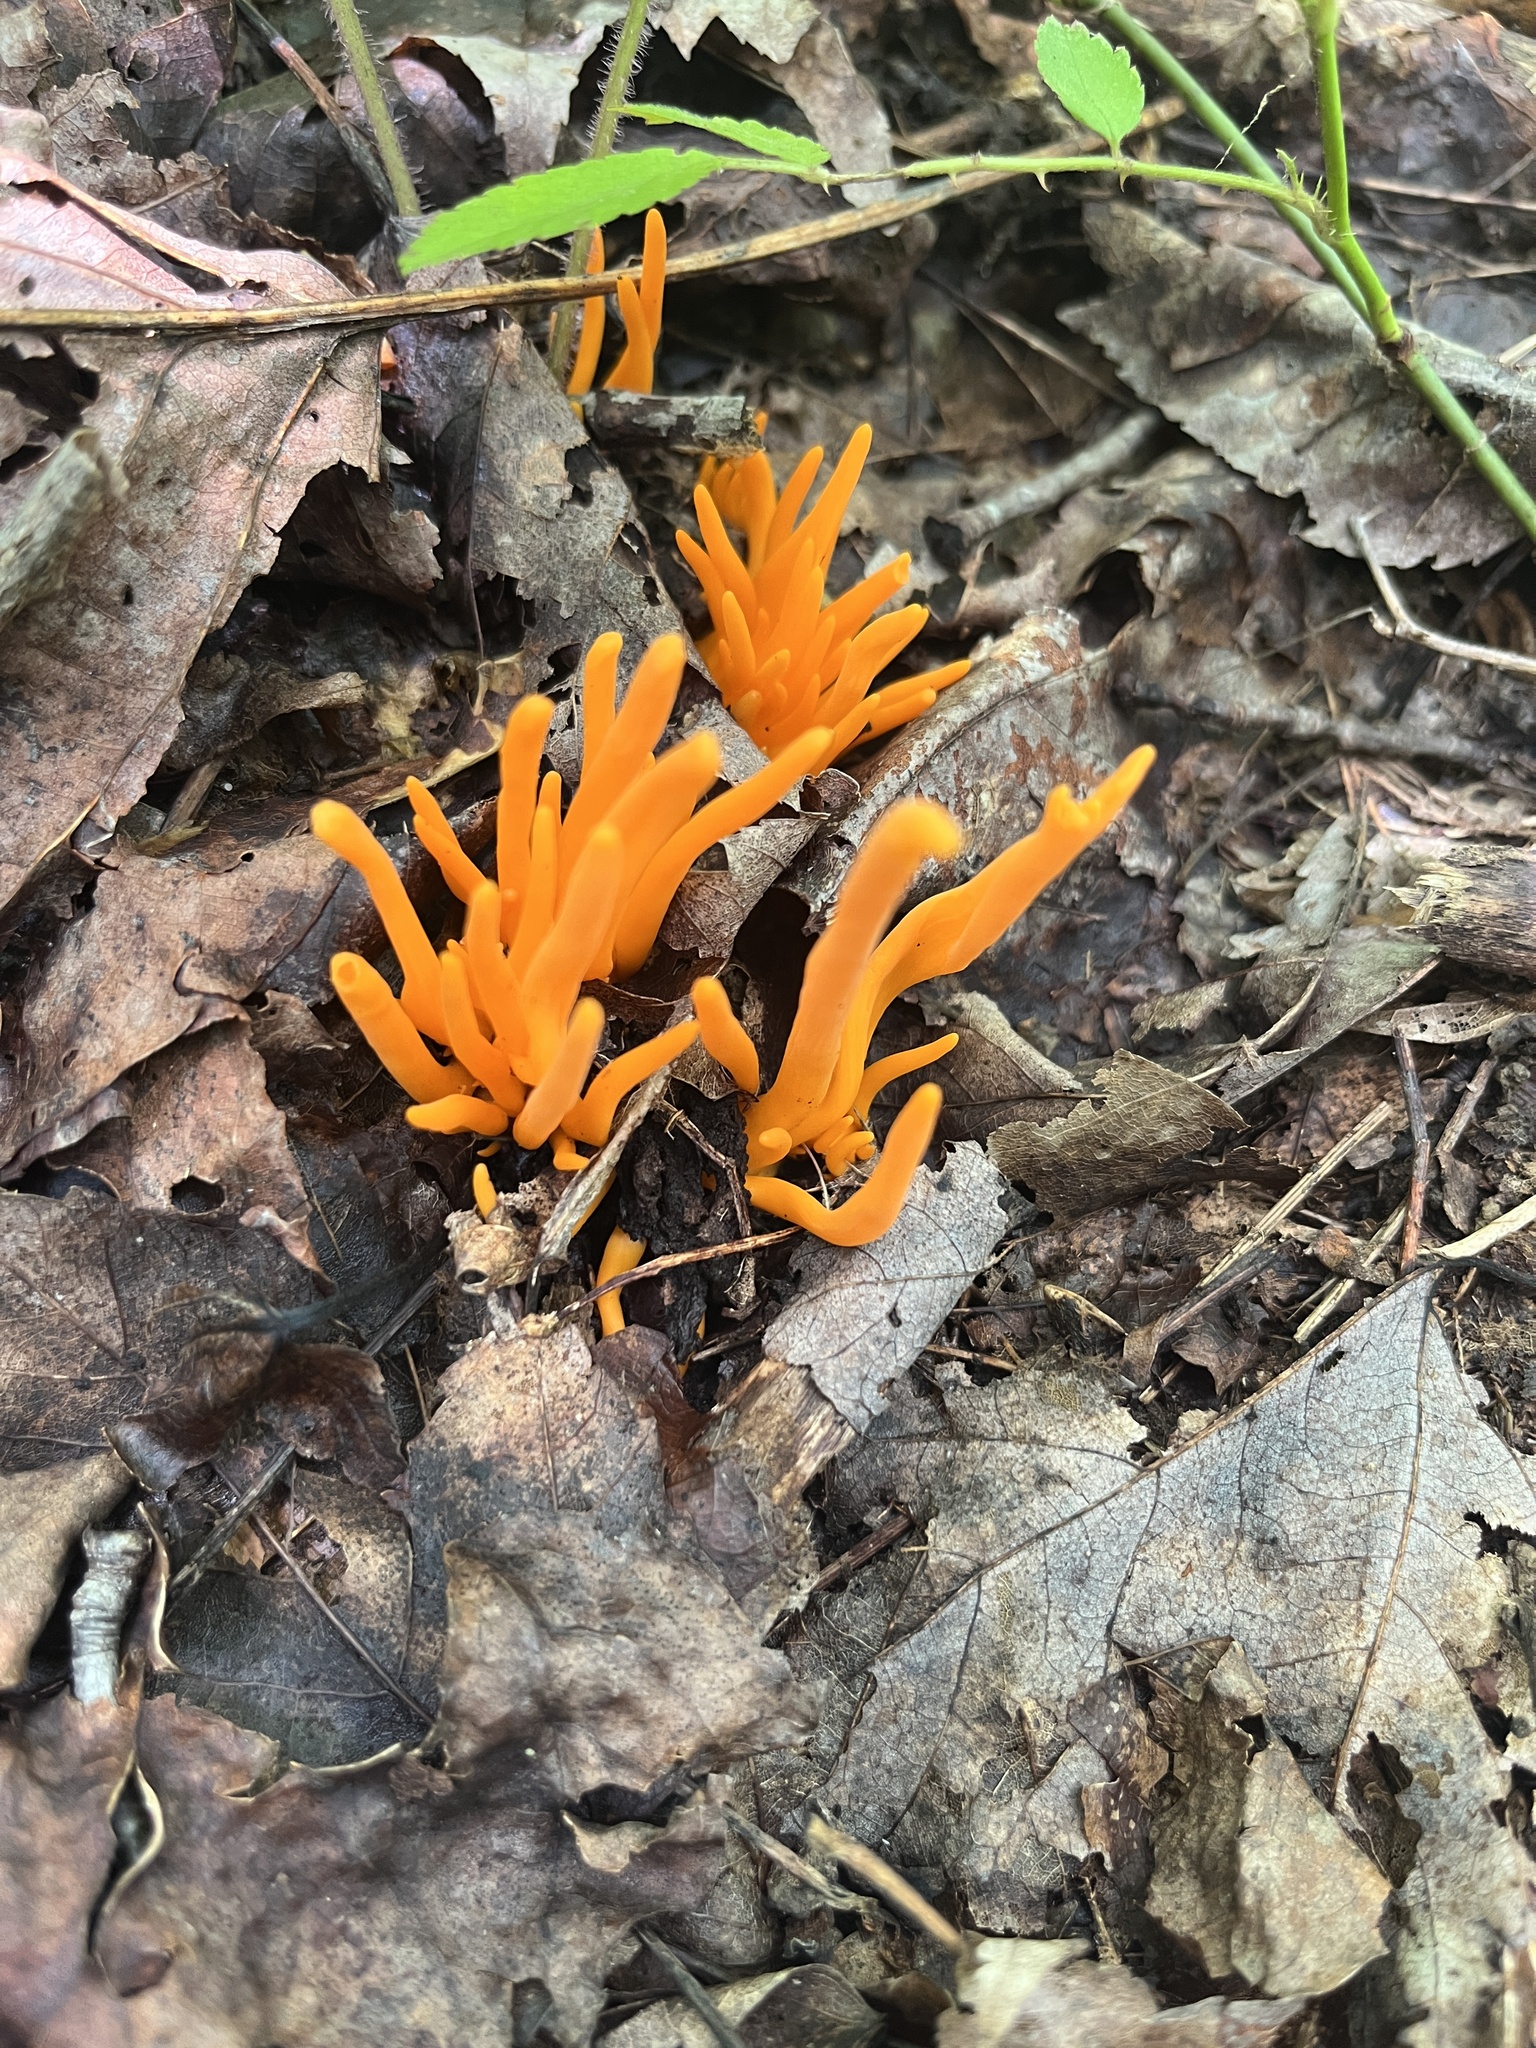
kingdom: Fungi
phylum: Basidiomycota
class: Agaricomycetes
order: Agaricales
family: Clavariaceae
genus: Clavulinopsis
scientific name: Clavulinopsis aurantiocinnabarina
